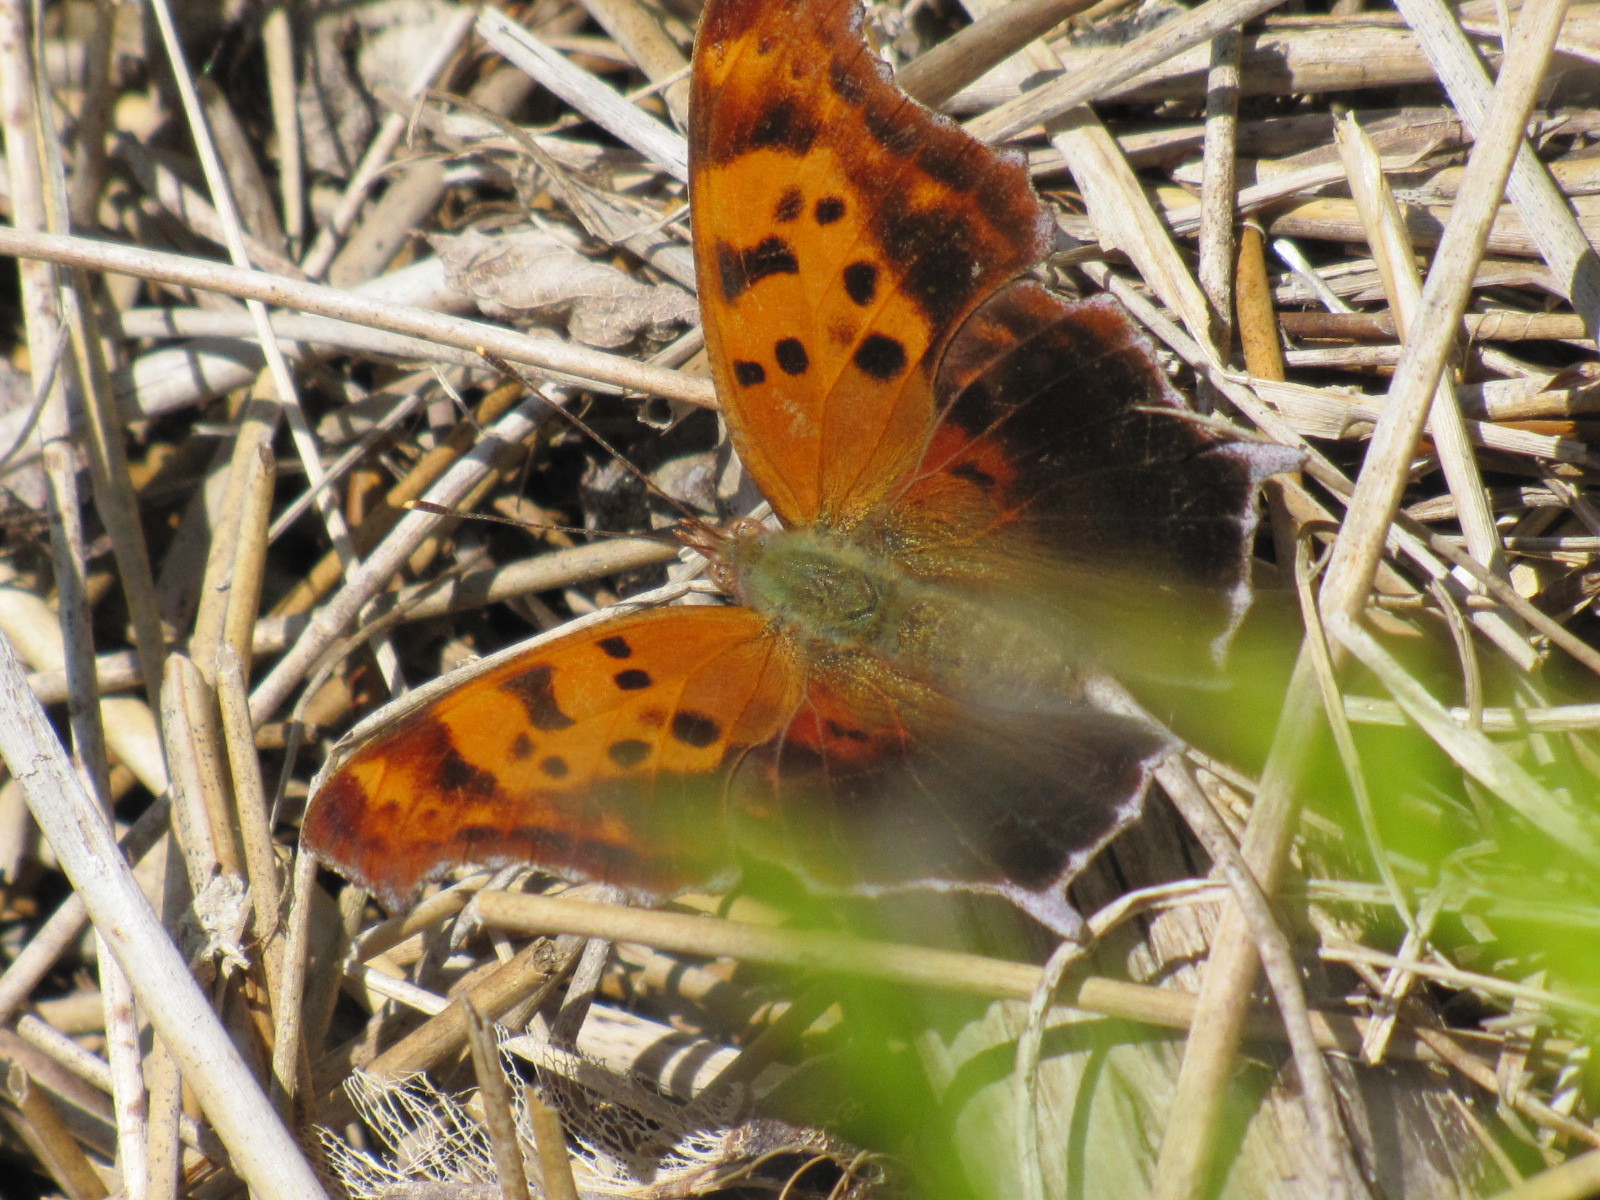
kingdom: Animalia
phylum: Arthropoda
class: Insecta
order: Lepidoptera
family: Nymphalidae
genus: Polygonia
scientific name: Polygonia interrogationis
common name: Question mark
